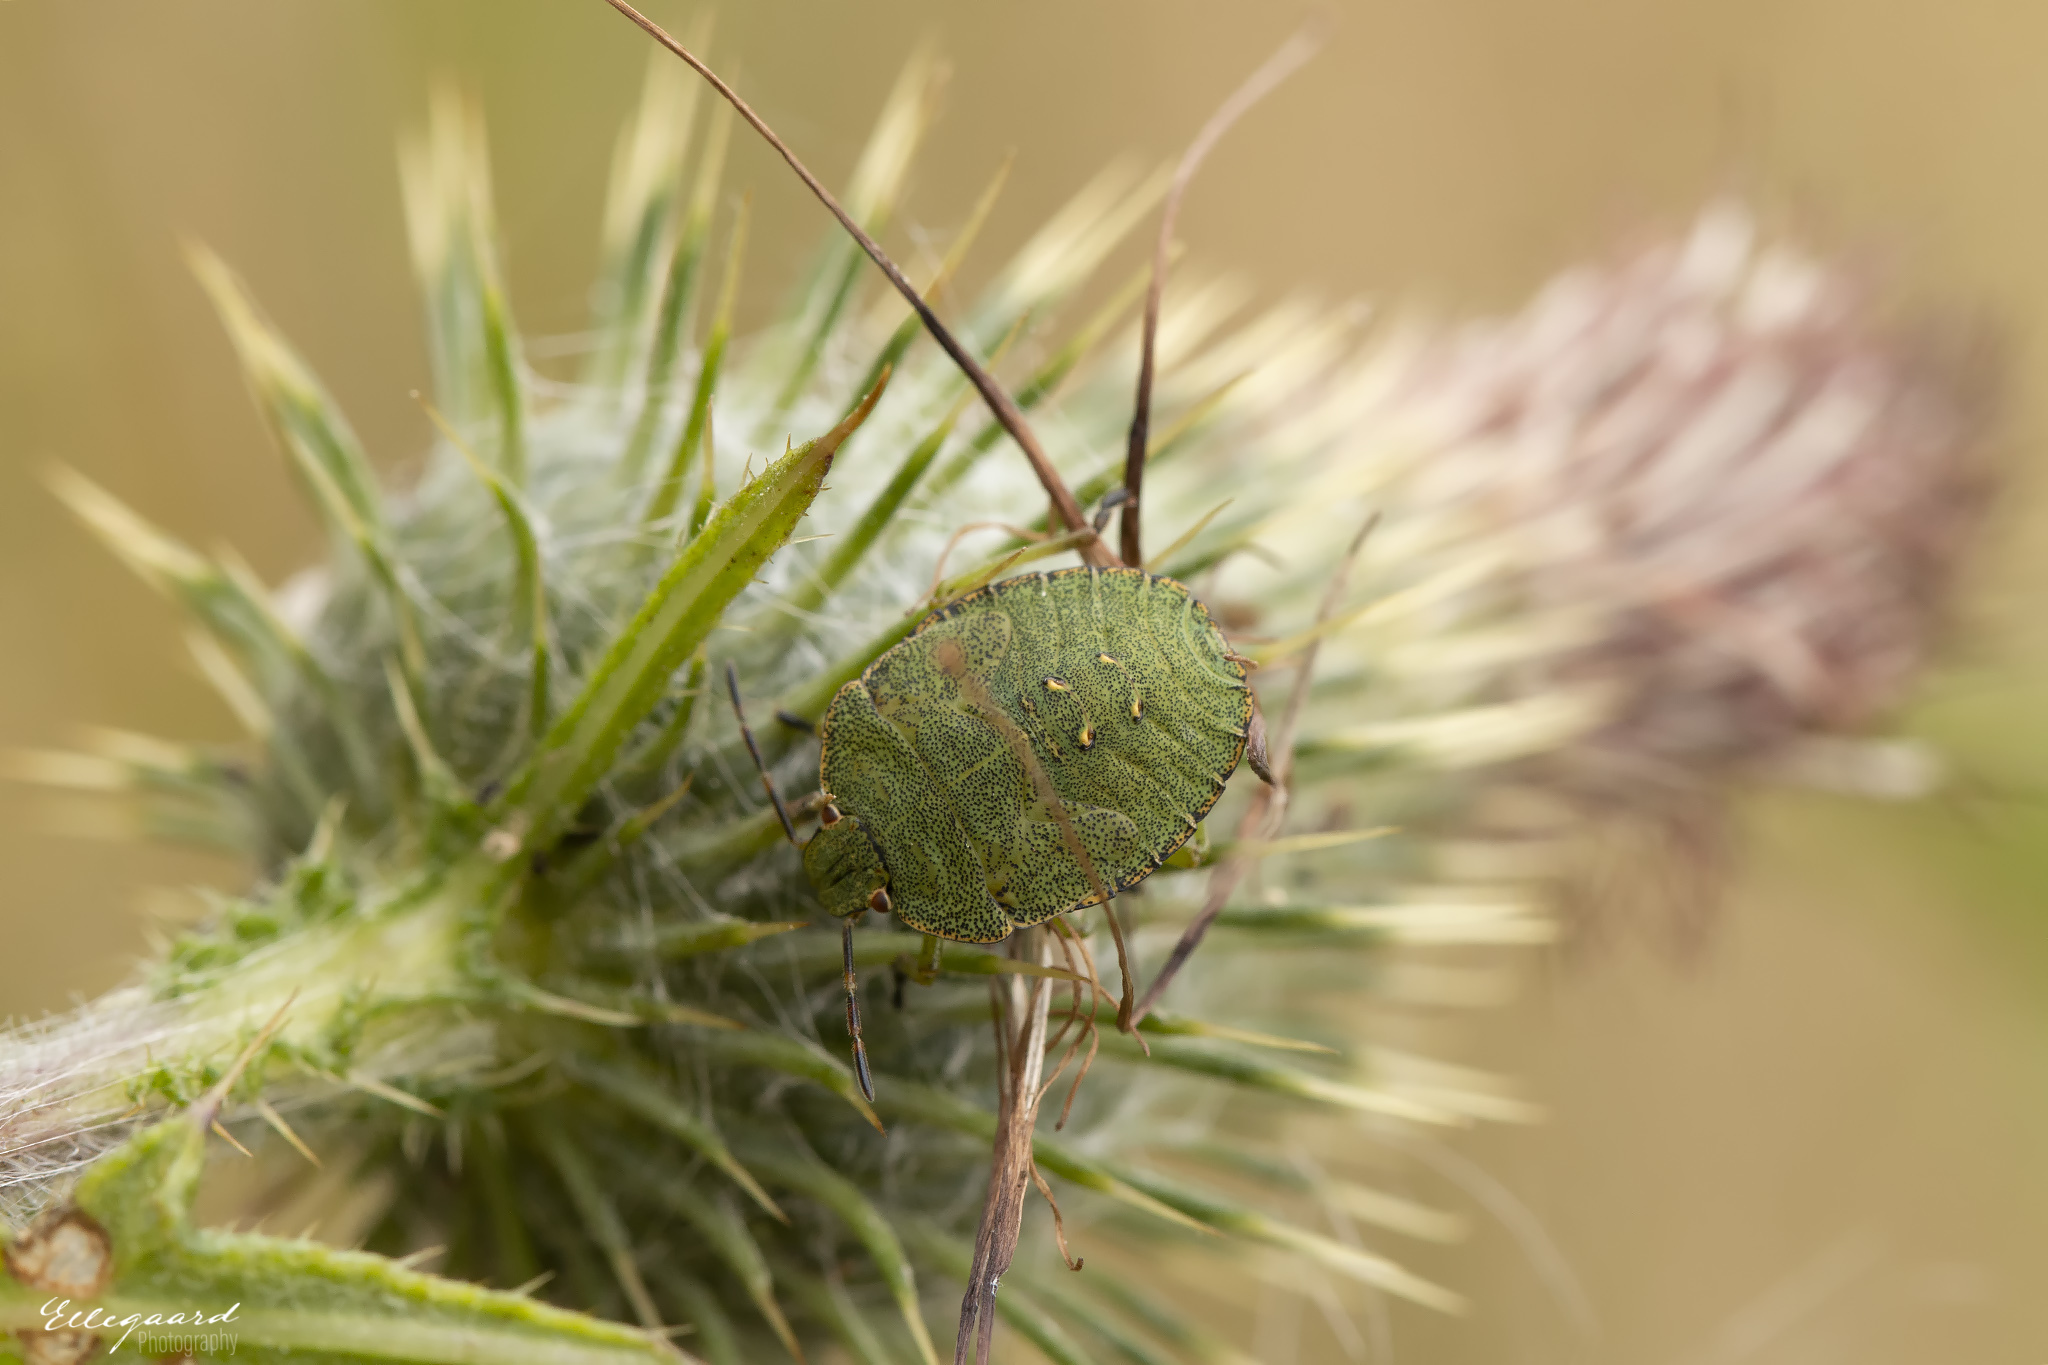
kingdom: Animalia
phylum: Arthropoda
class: Insecta
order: Hemiptera
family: Pentatomidae
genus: Palomena
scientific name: Palomena prasina
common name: Green shieldbug
